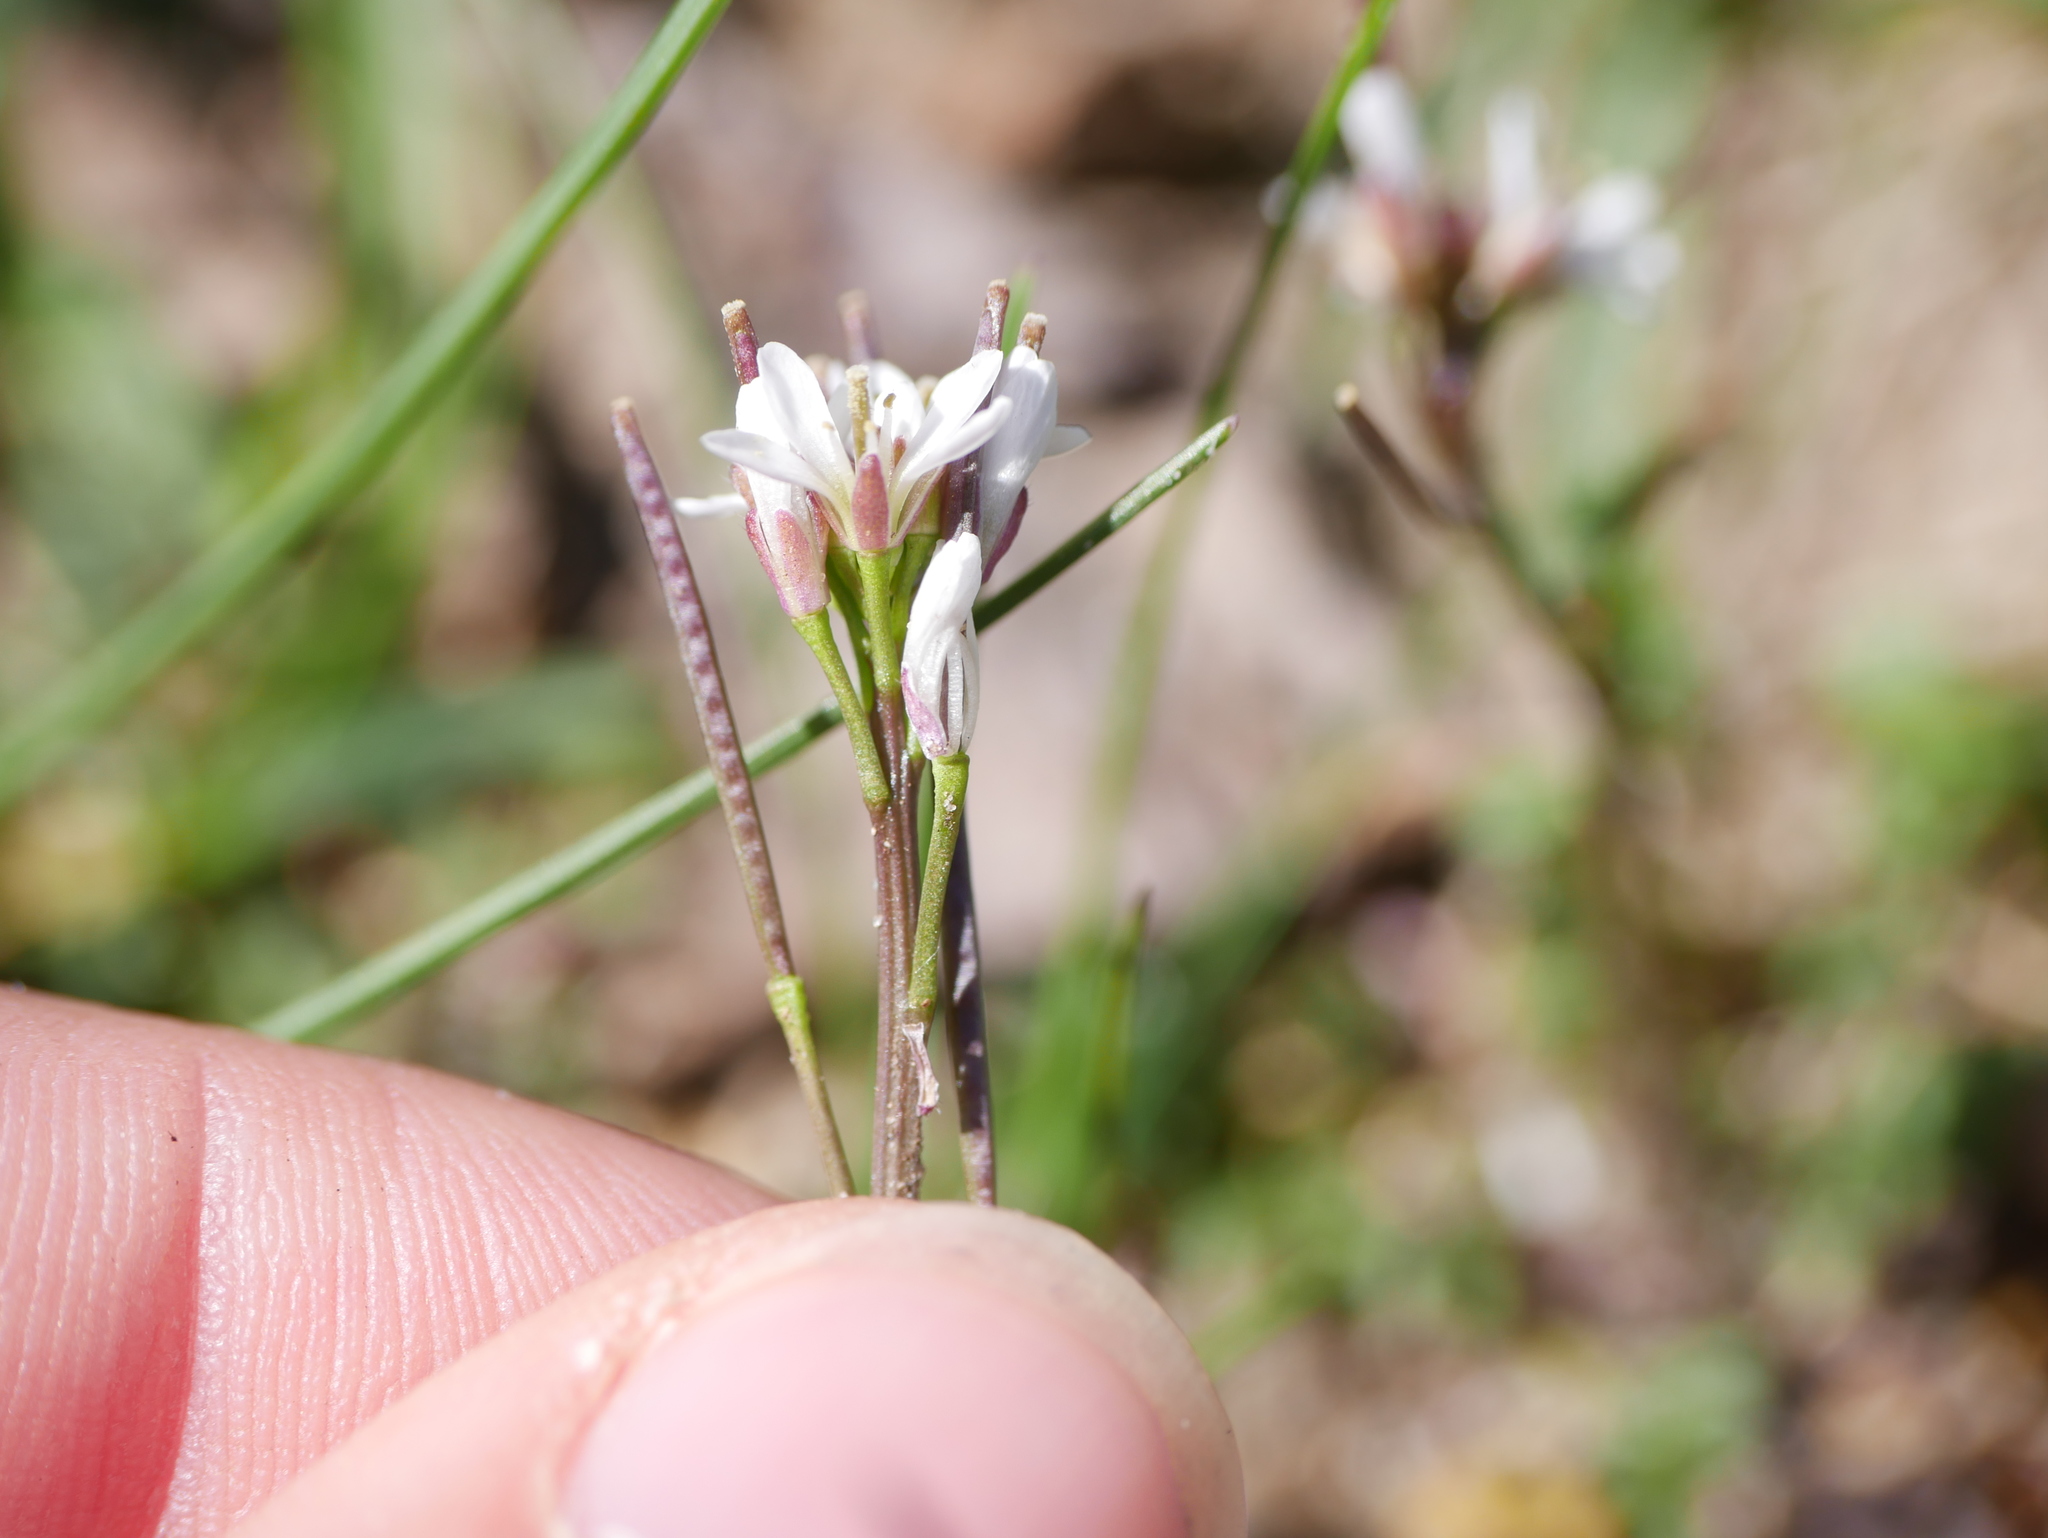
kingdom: Plantae
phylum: Tracheophyta
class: Magnoliopsida
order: Brassicales
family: Brassicaceae
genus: Cardamine
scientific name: Cardamine hirsuta
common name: Hairy bittercress
